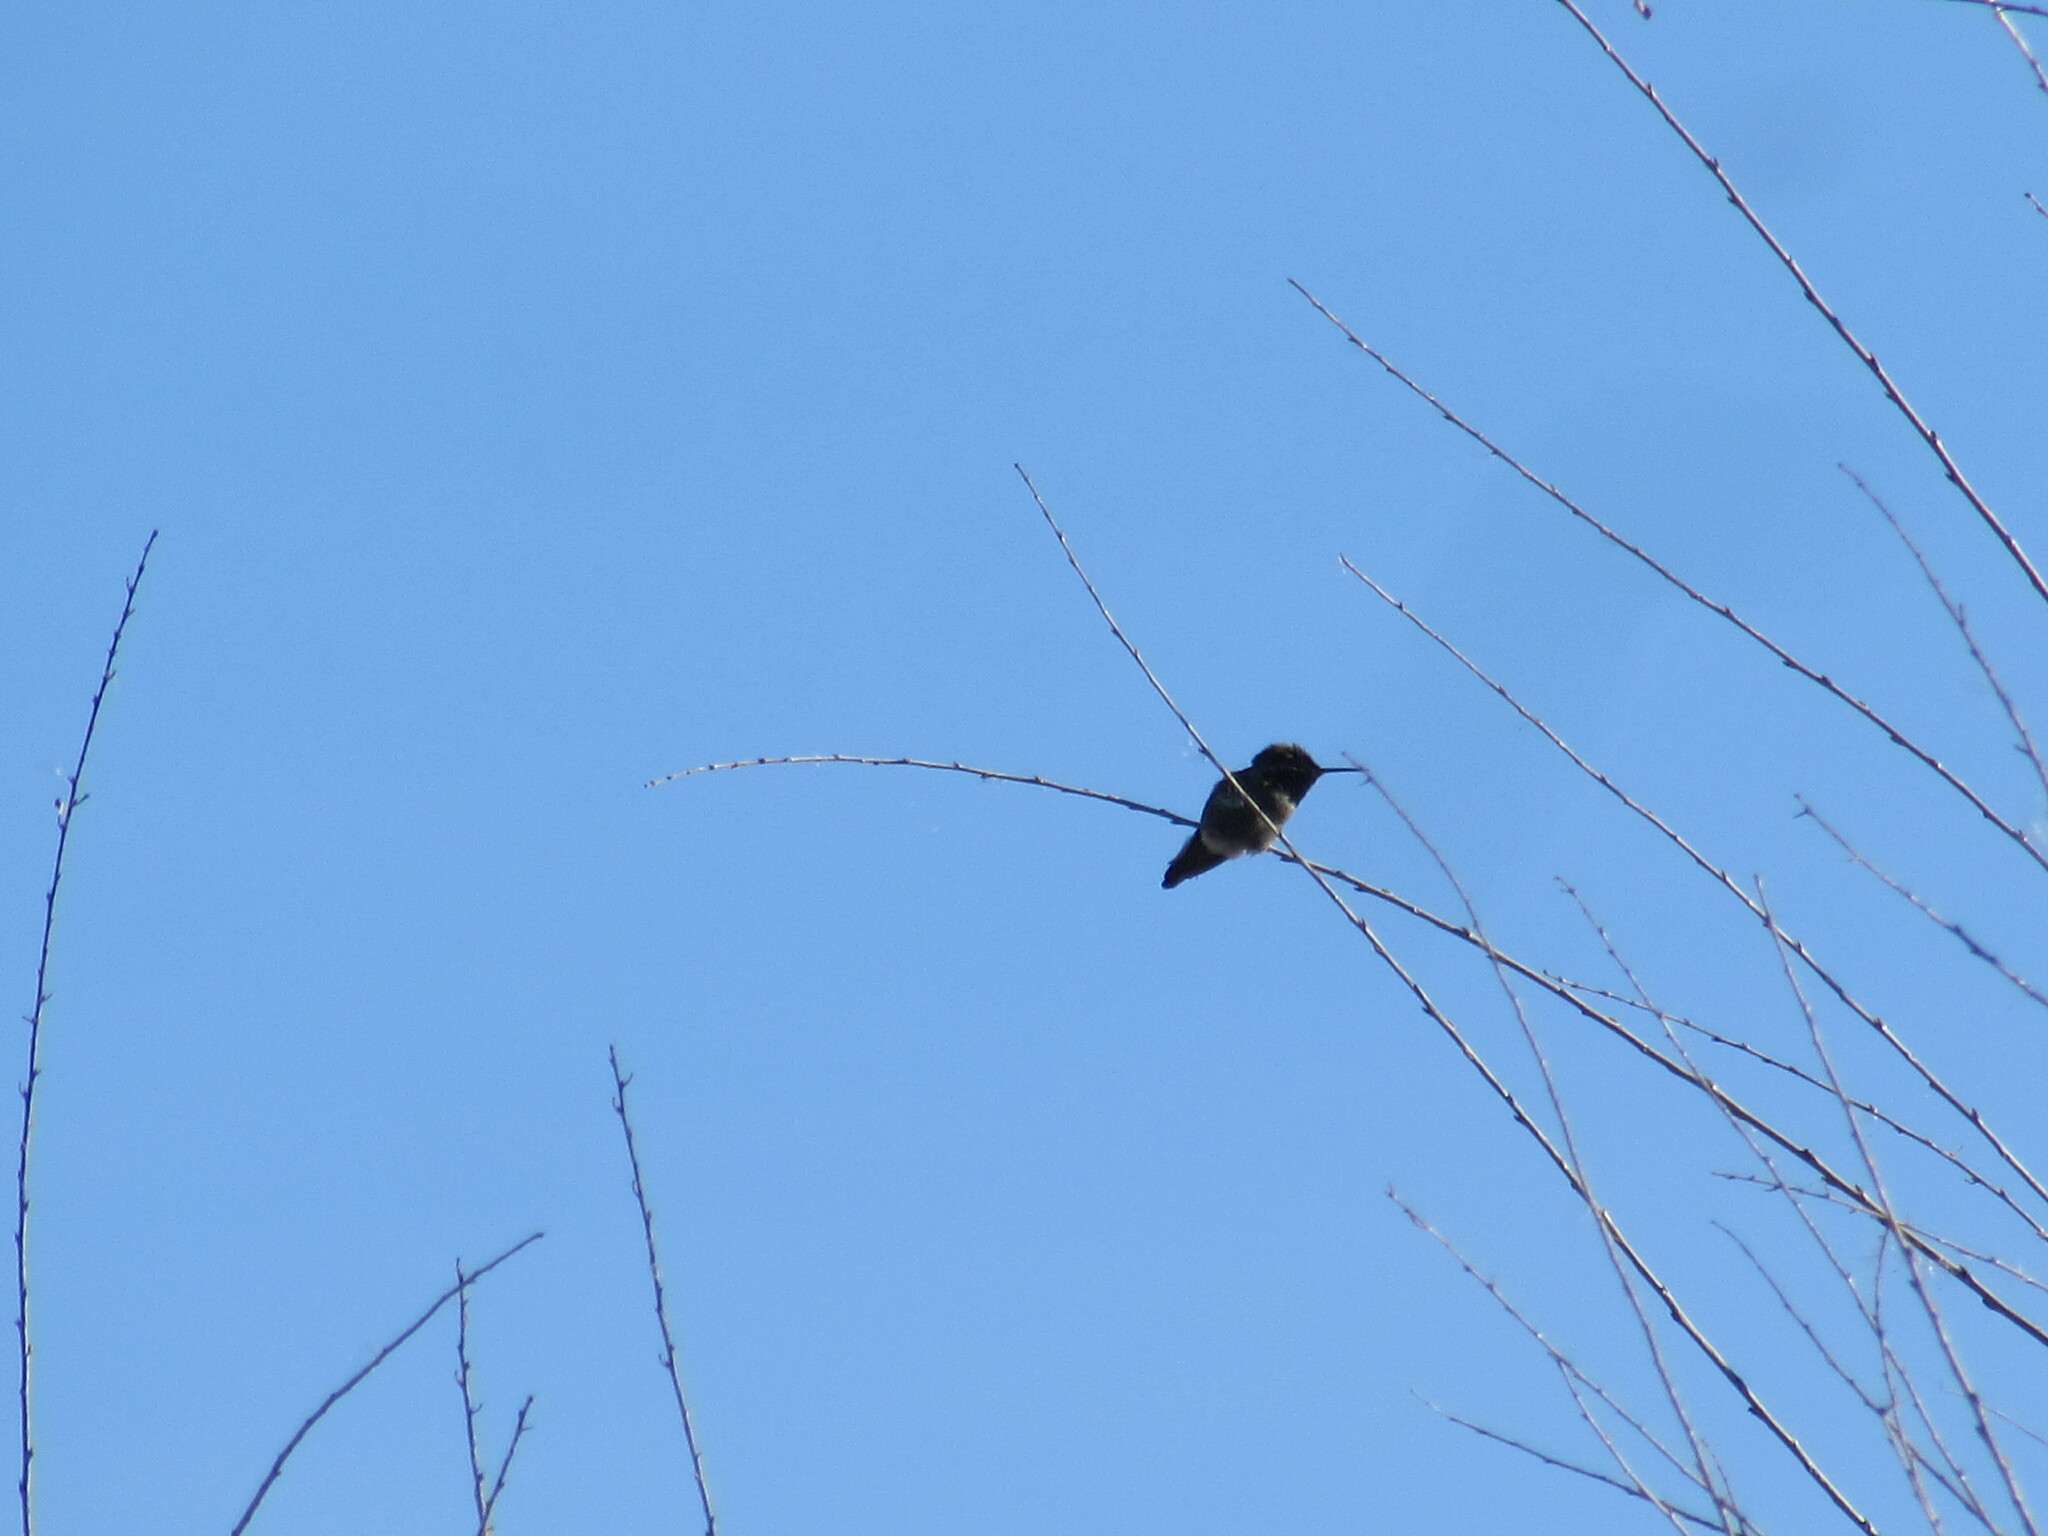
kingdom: Animalia
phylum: Chordata
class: Aves
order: Apodiformes
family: Trochilidae
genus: Calypte
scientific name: Calypte anna
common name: Anna's hummingbird
